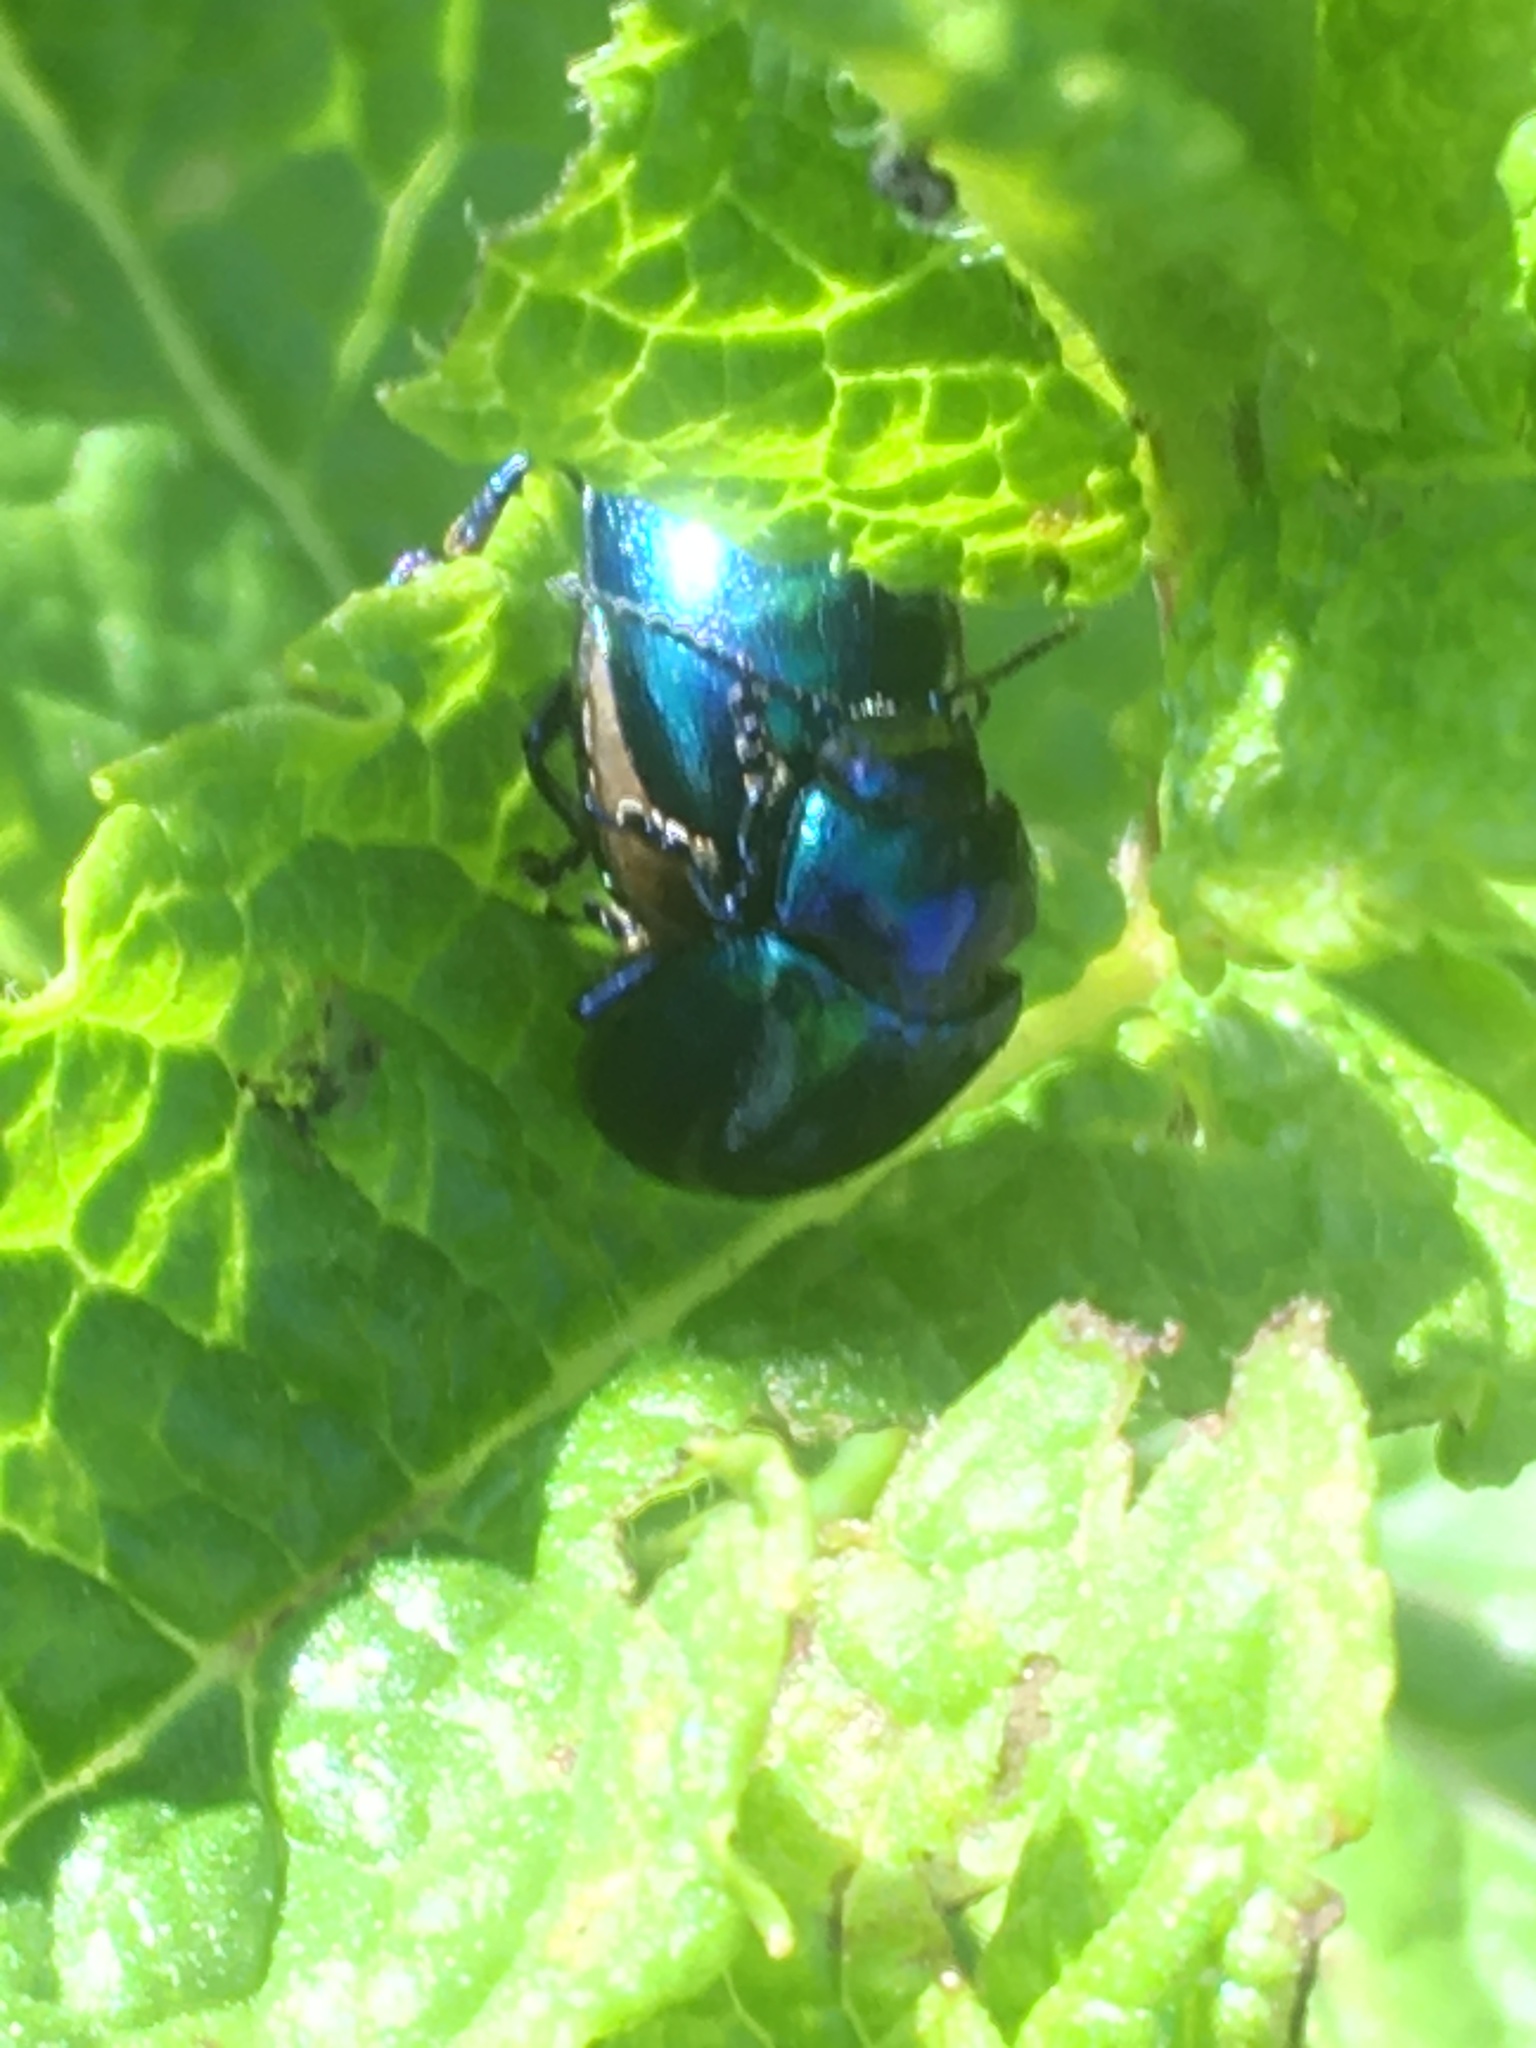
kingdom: Animalia
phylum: Arthropoda
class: Insecta
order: Coleoptera
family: Chrysomelidae
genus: Chrysolina
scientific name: Chrysolina coerulans
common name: Blue mint beetle
